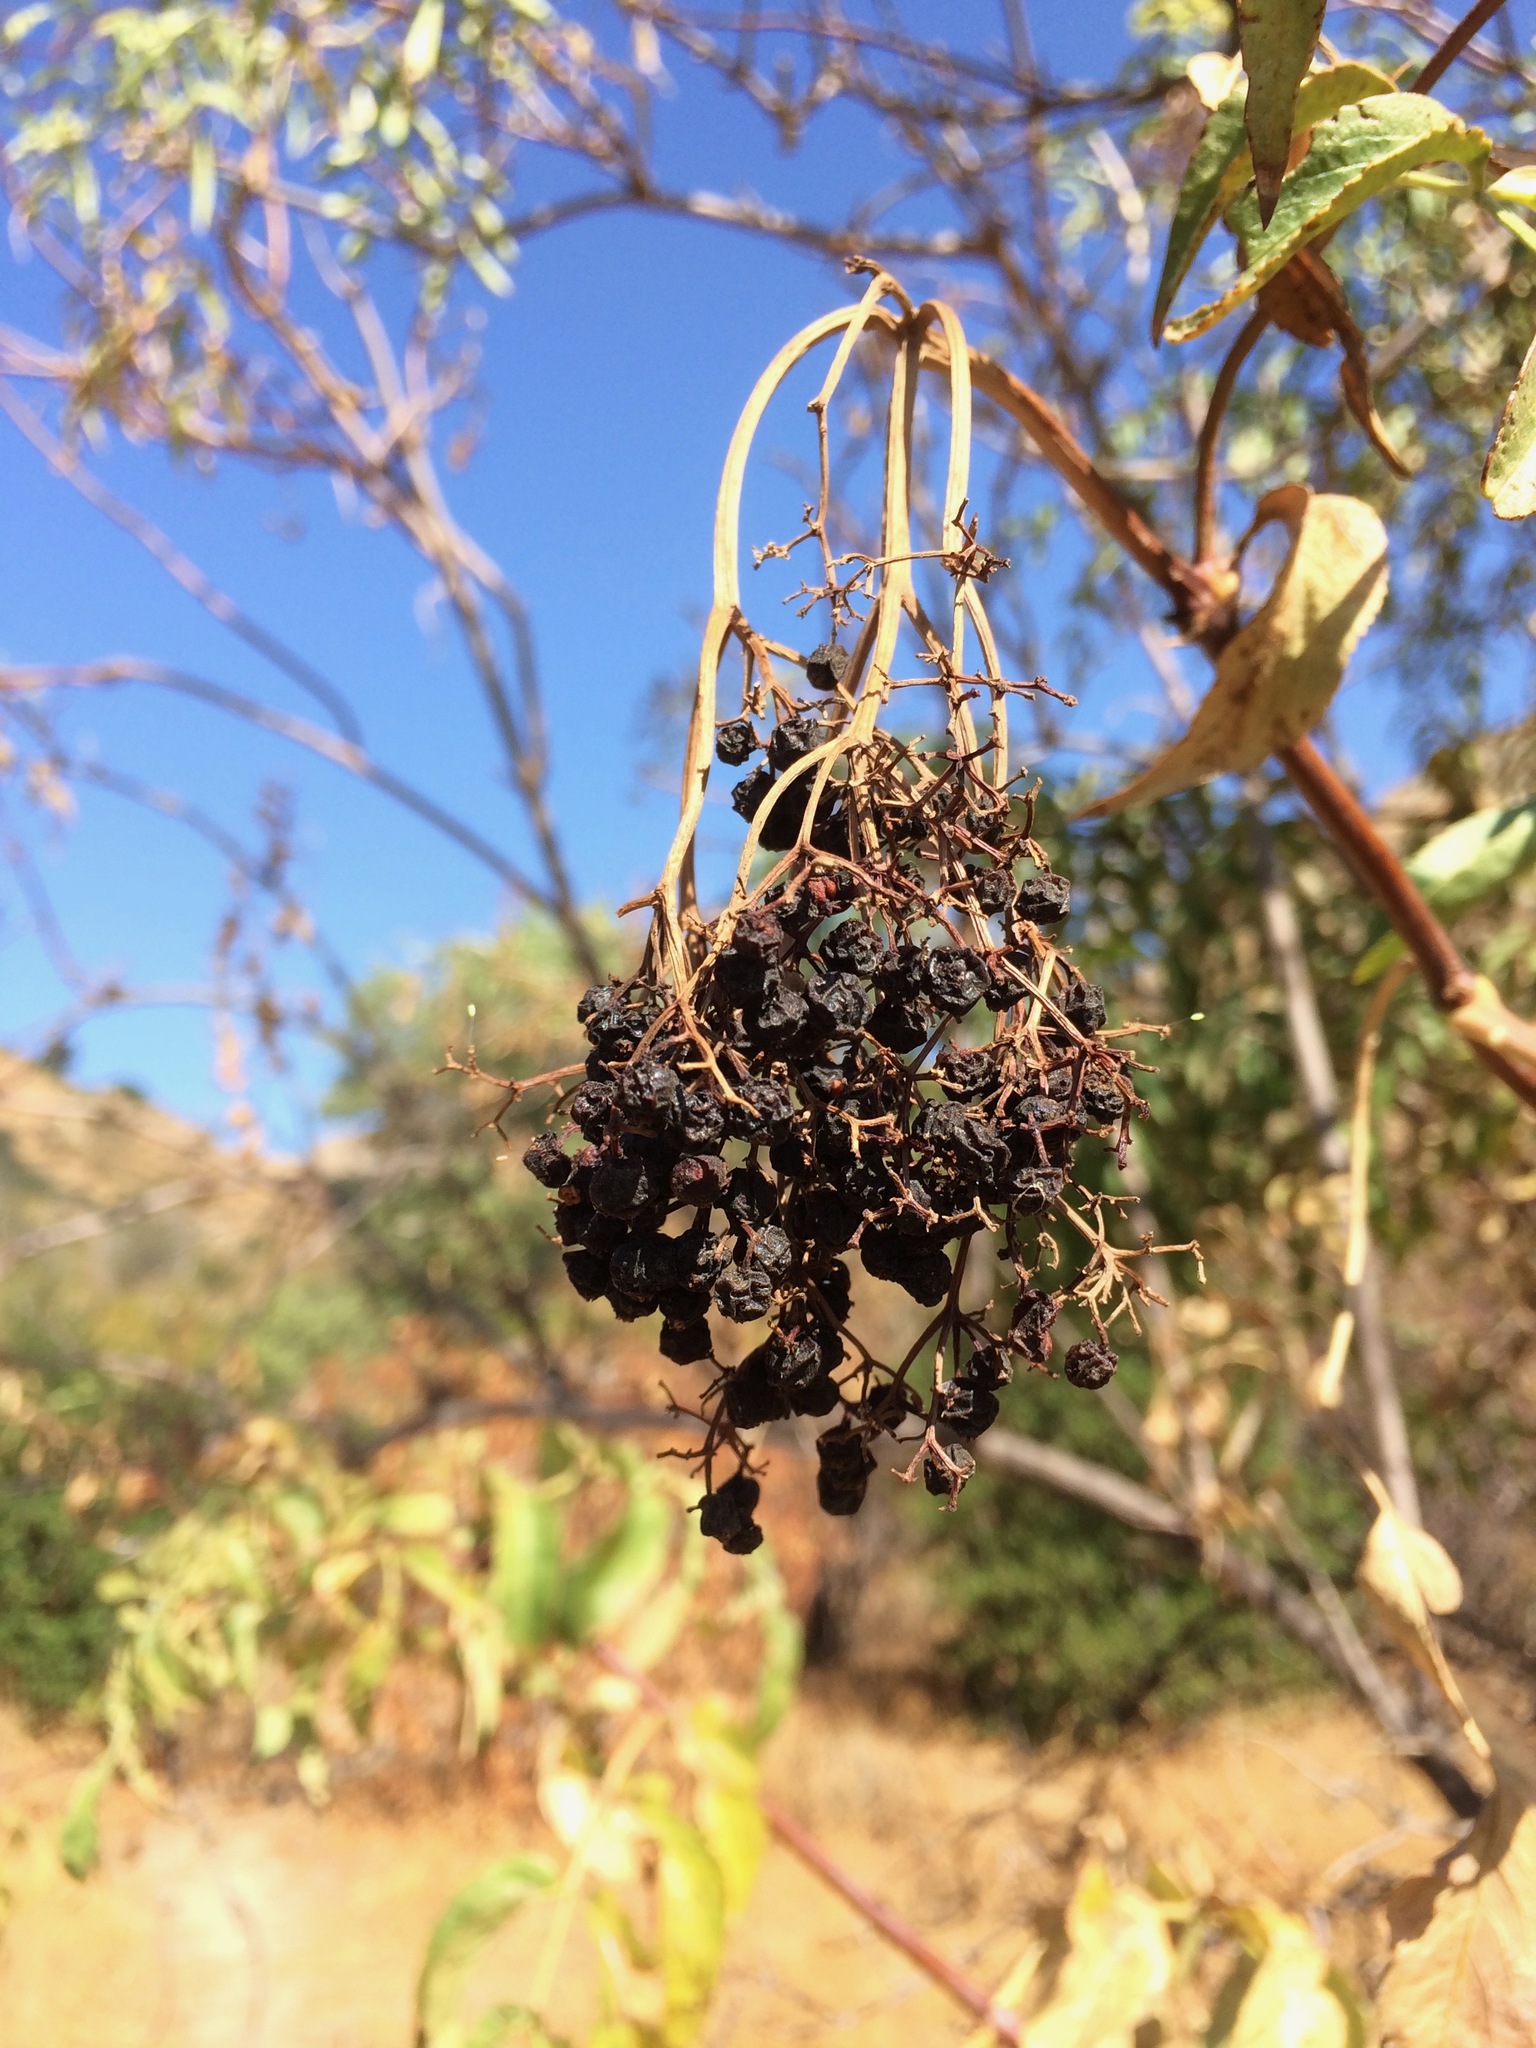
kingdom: Plantae
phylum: Tracheophyta
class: Magnoliopsida
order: Dipsacales
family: Viburnaceae
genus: Sambucus
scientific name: Sambucus cerulea
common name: Blue elder
